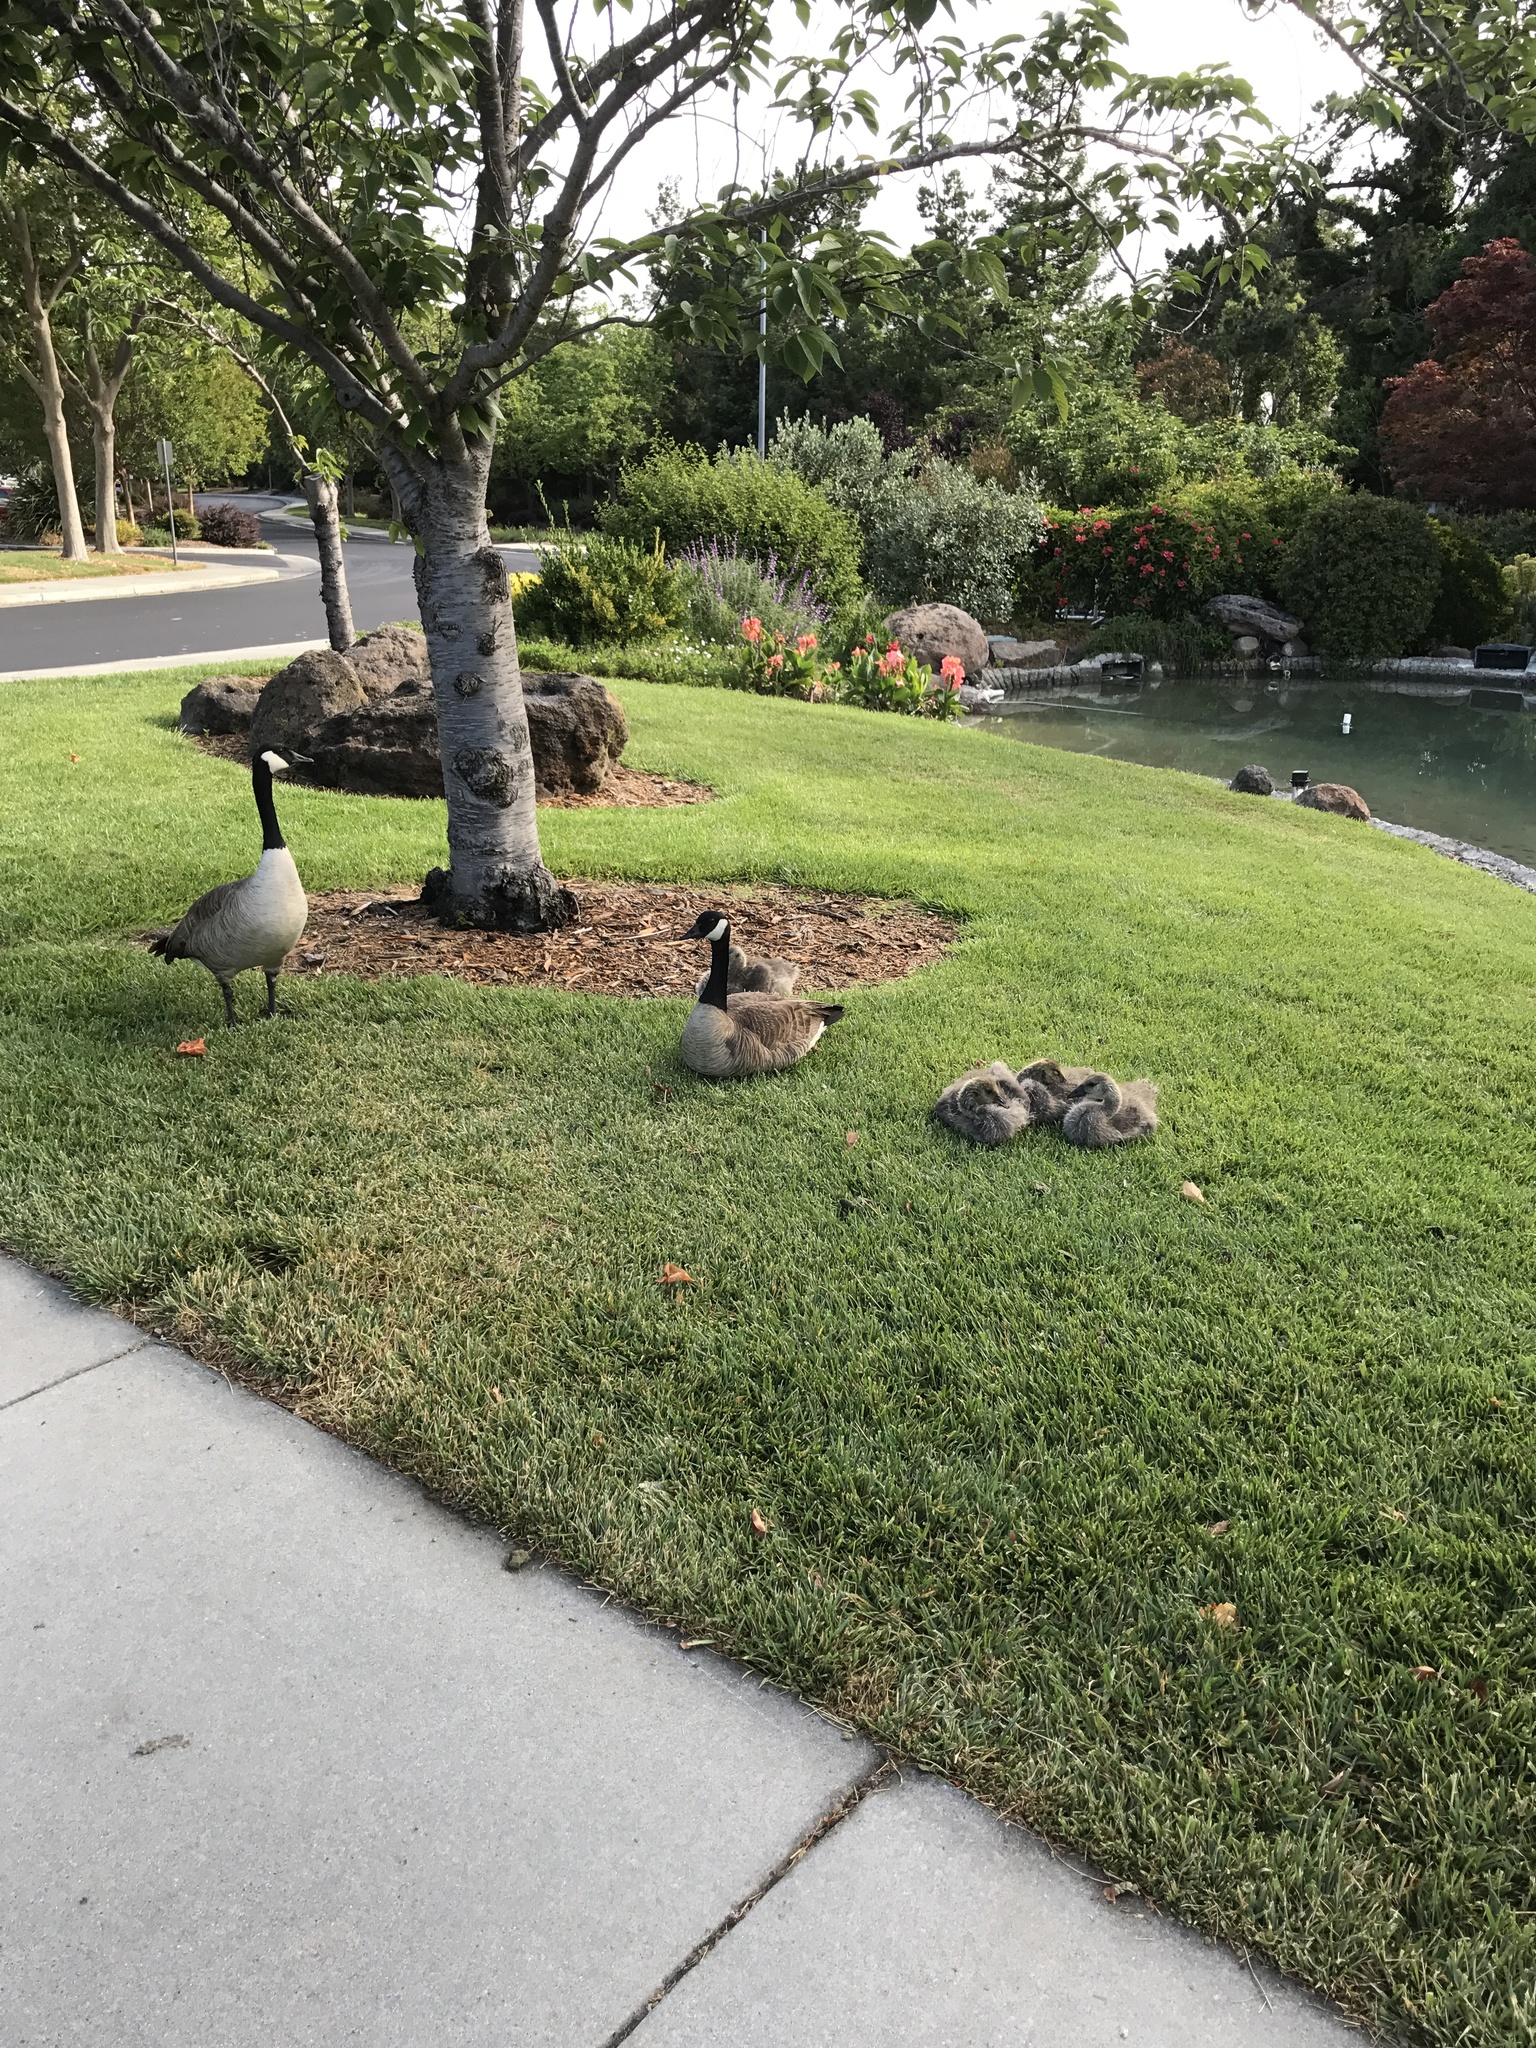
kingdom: Animalia
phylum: Chordata
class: Aves
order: Anseriformes
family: Anatidae
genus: Branta
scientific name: Branta canadensis
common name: Canada goose
